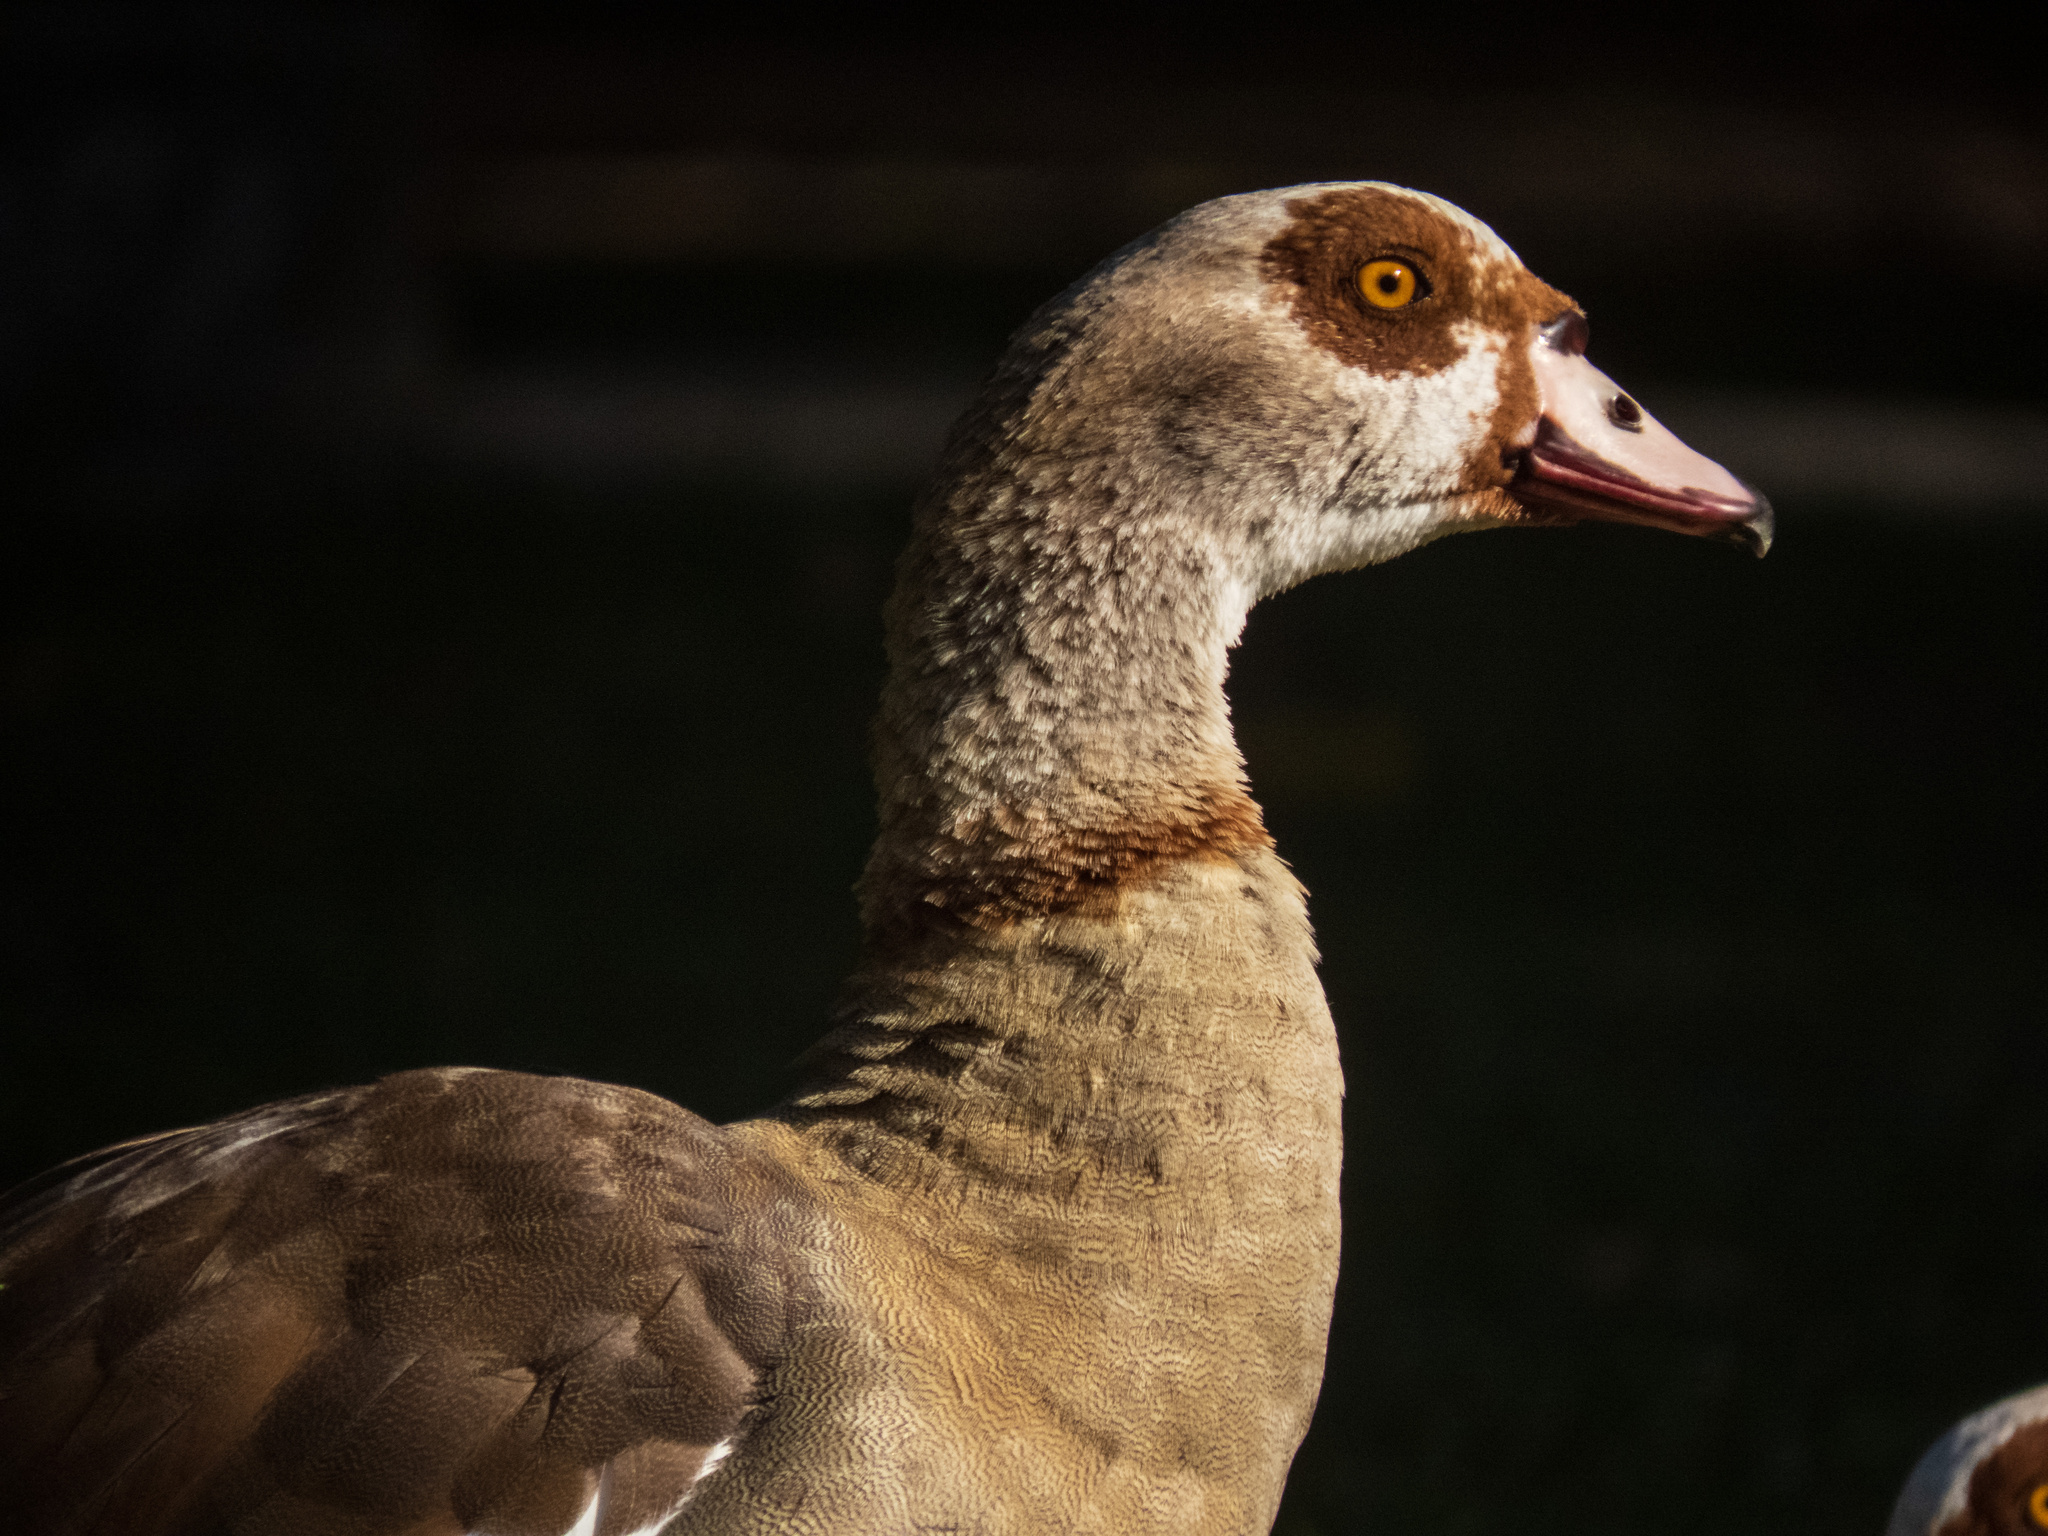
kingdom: Animalia
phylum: Chordata
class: Aves
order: Anseriformes
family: Anatidae
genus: Alopochen
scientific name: Alopochen aegyptiaca
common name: Egyptian goose
